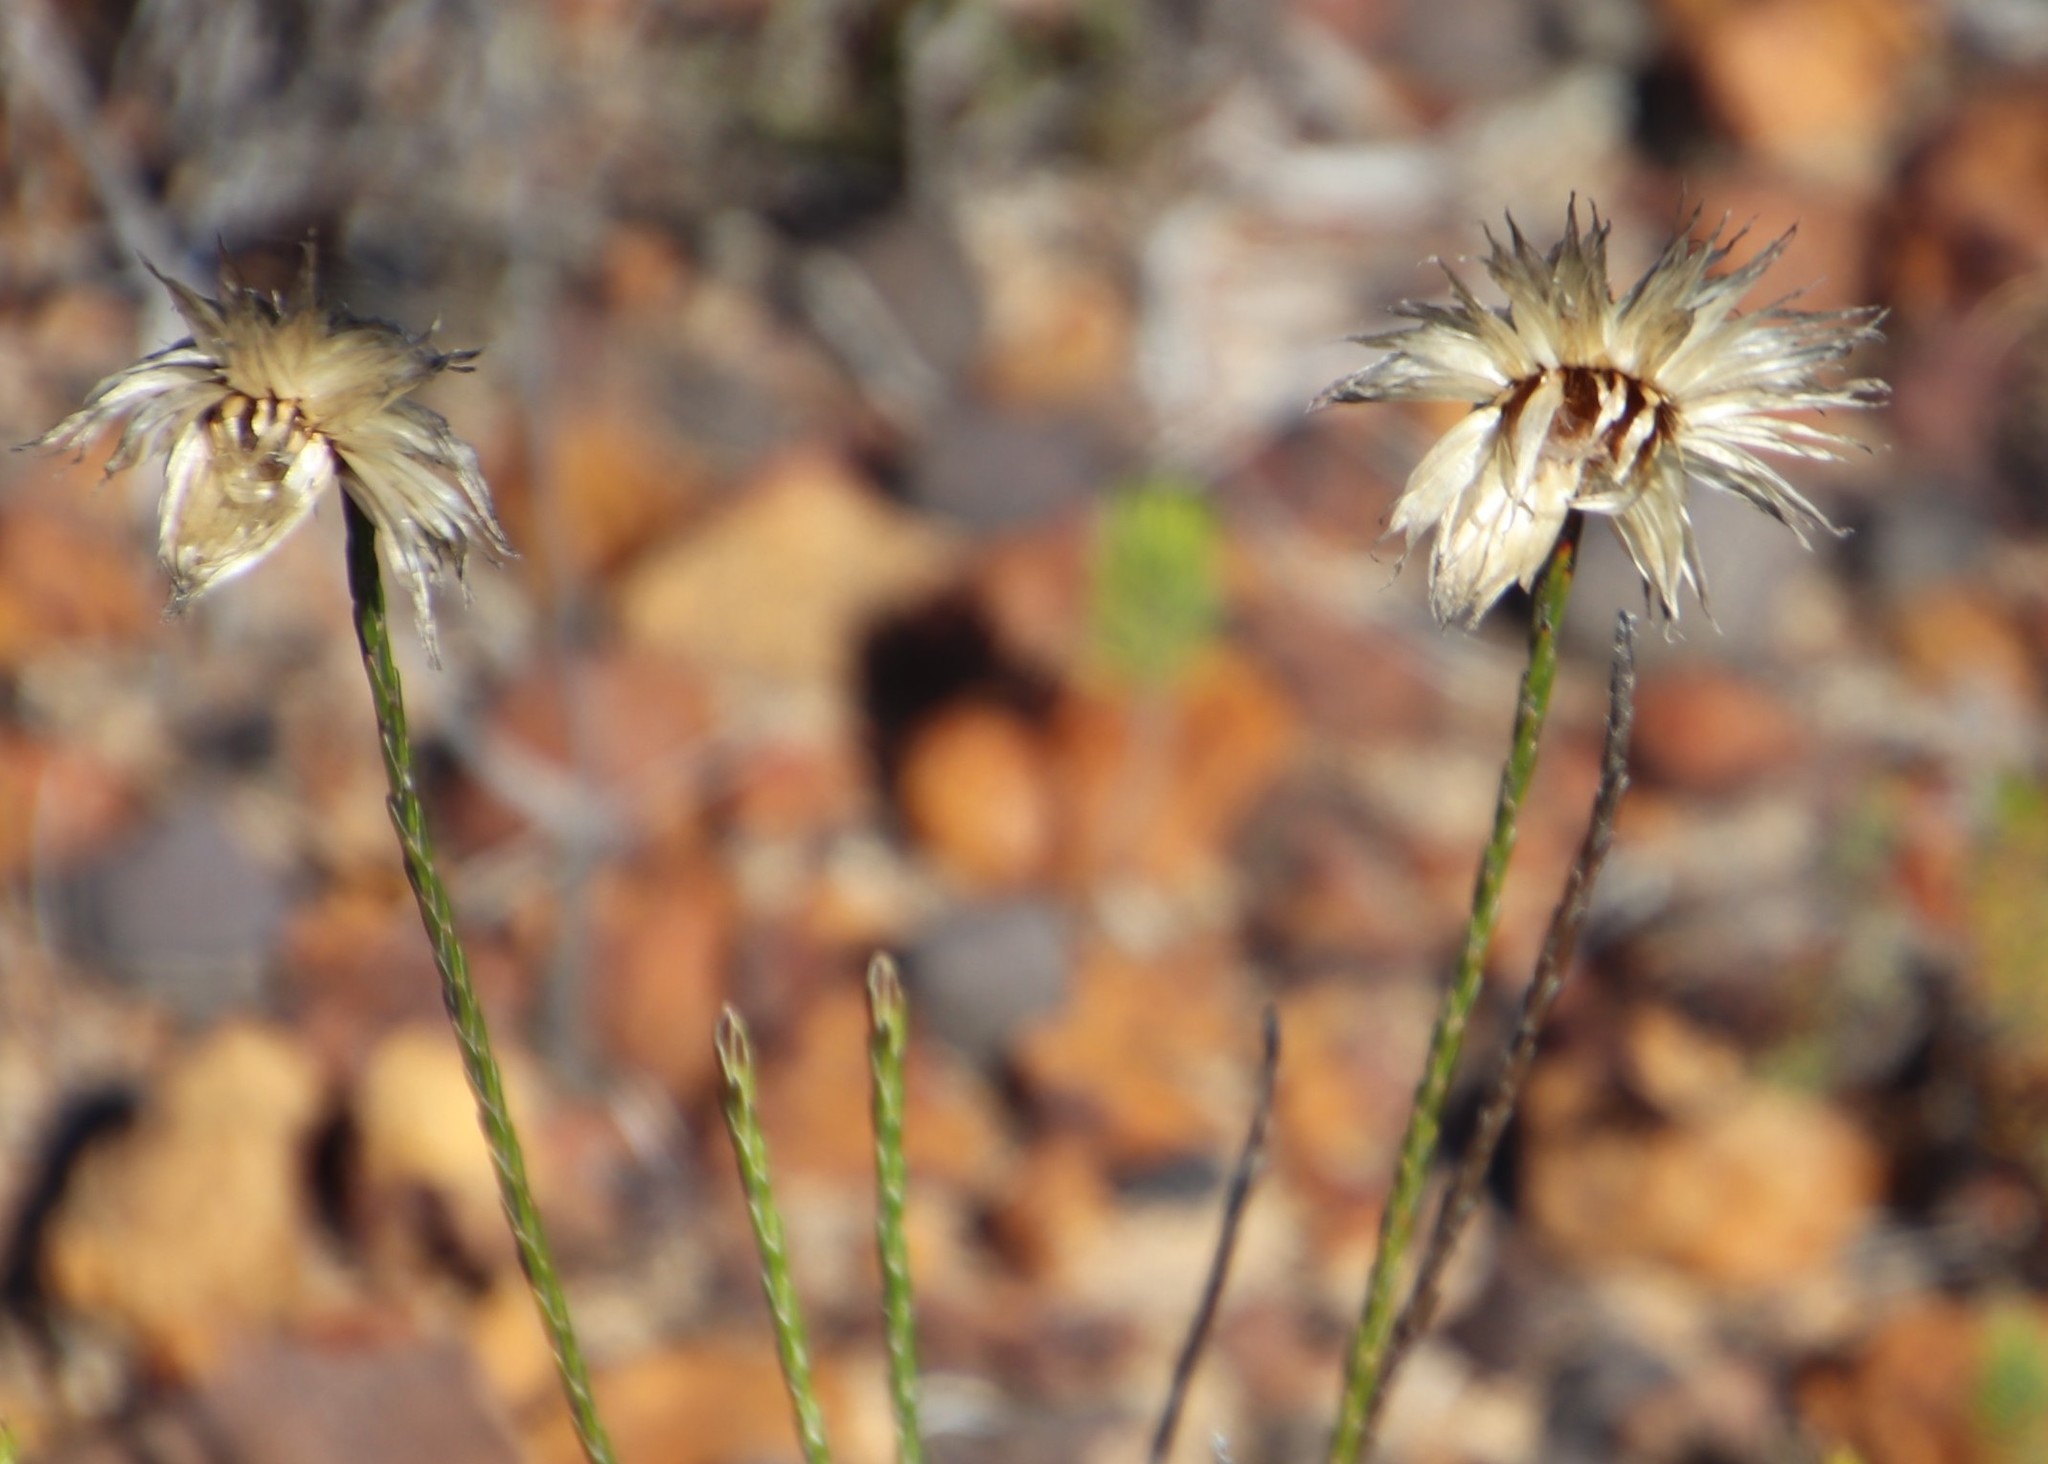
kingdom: Plantae
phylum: Tracheophyta
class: Magnoliopsida
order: Asterales
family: Asteraceae
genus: Edmondia
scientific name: Edmondia sesamoides
